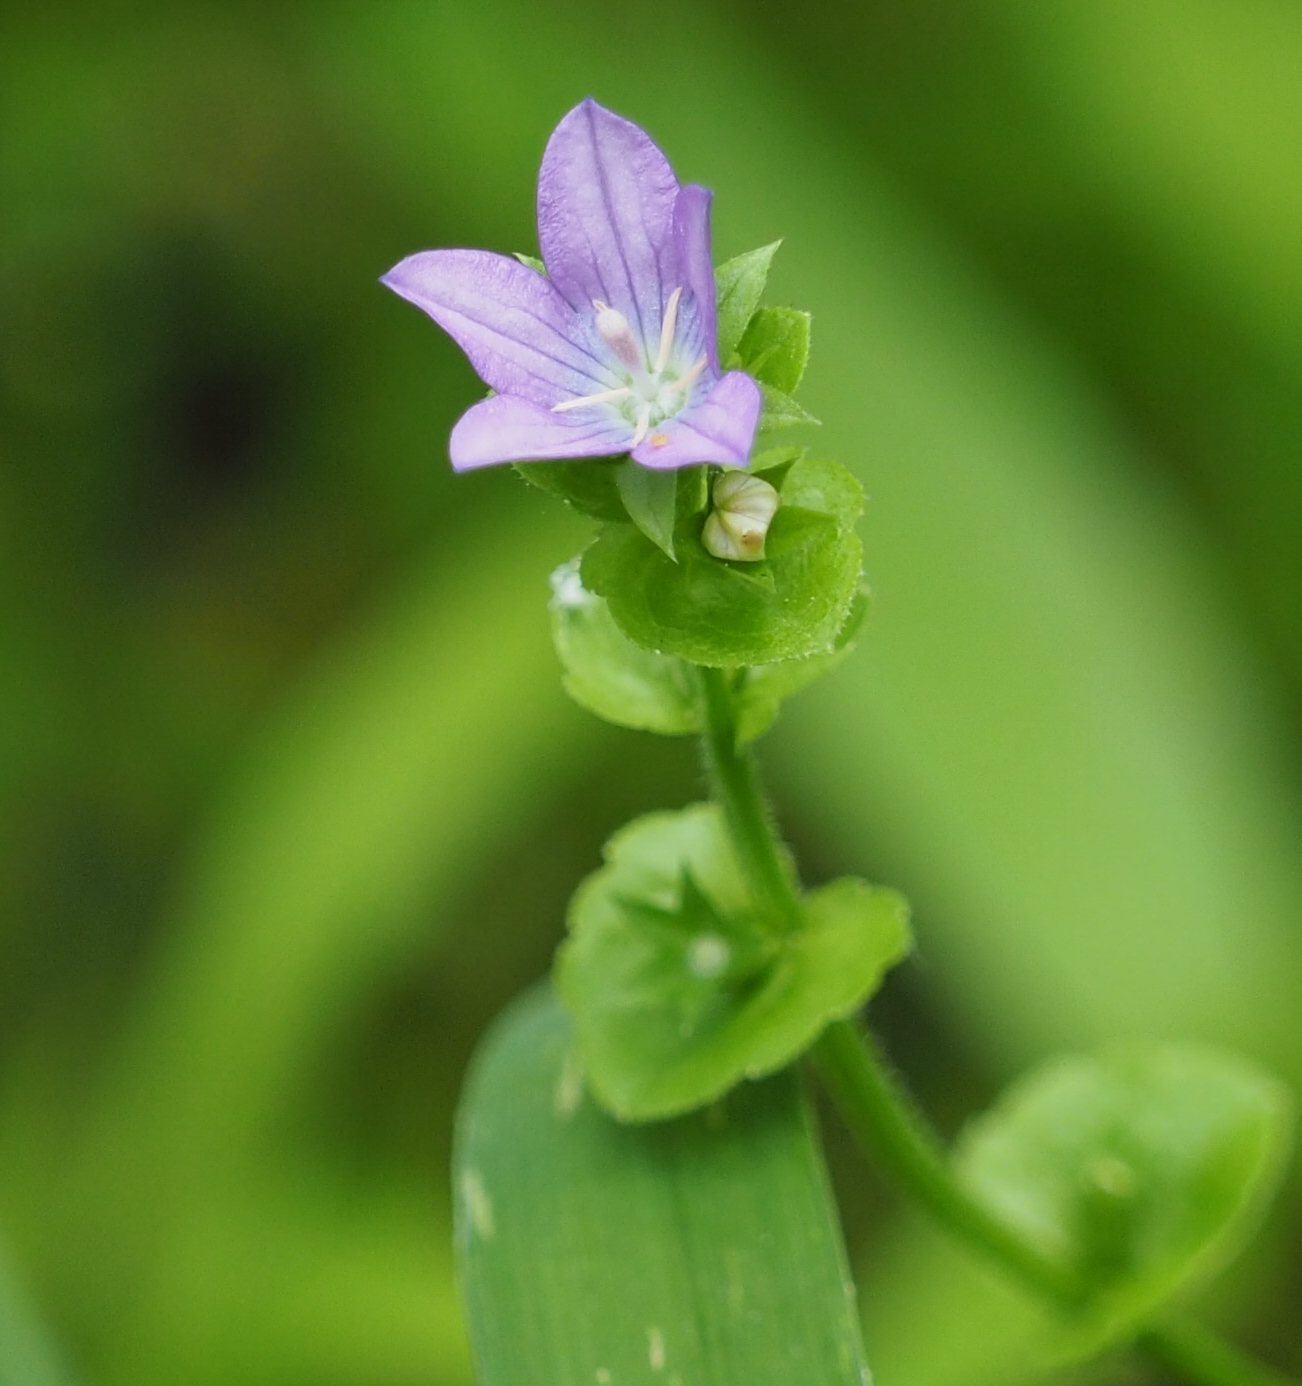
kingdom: Plantae
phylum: Tracheophyta
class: Magnoliopsida
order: Asterales
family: Campanulaceae
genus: Triodanis
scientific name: Triodanis perfoliata
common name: Clasping venus' looking-glass
